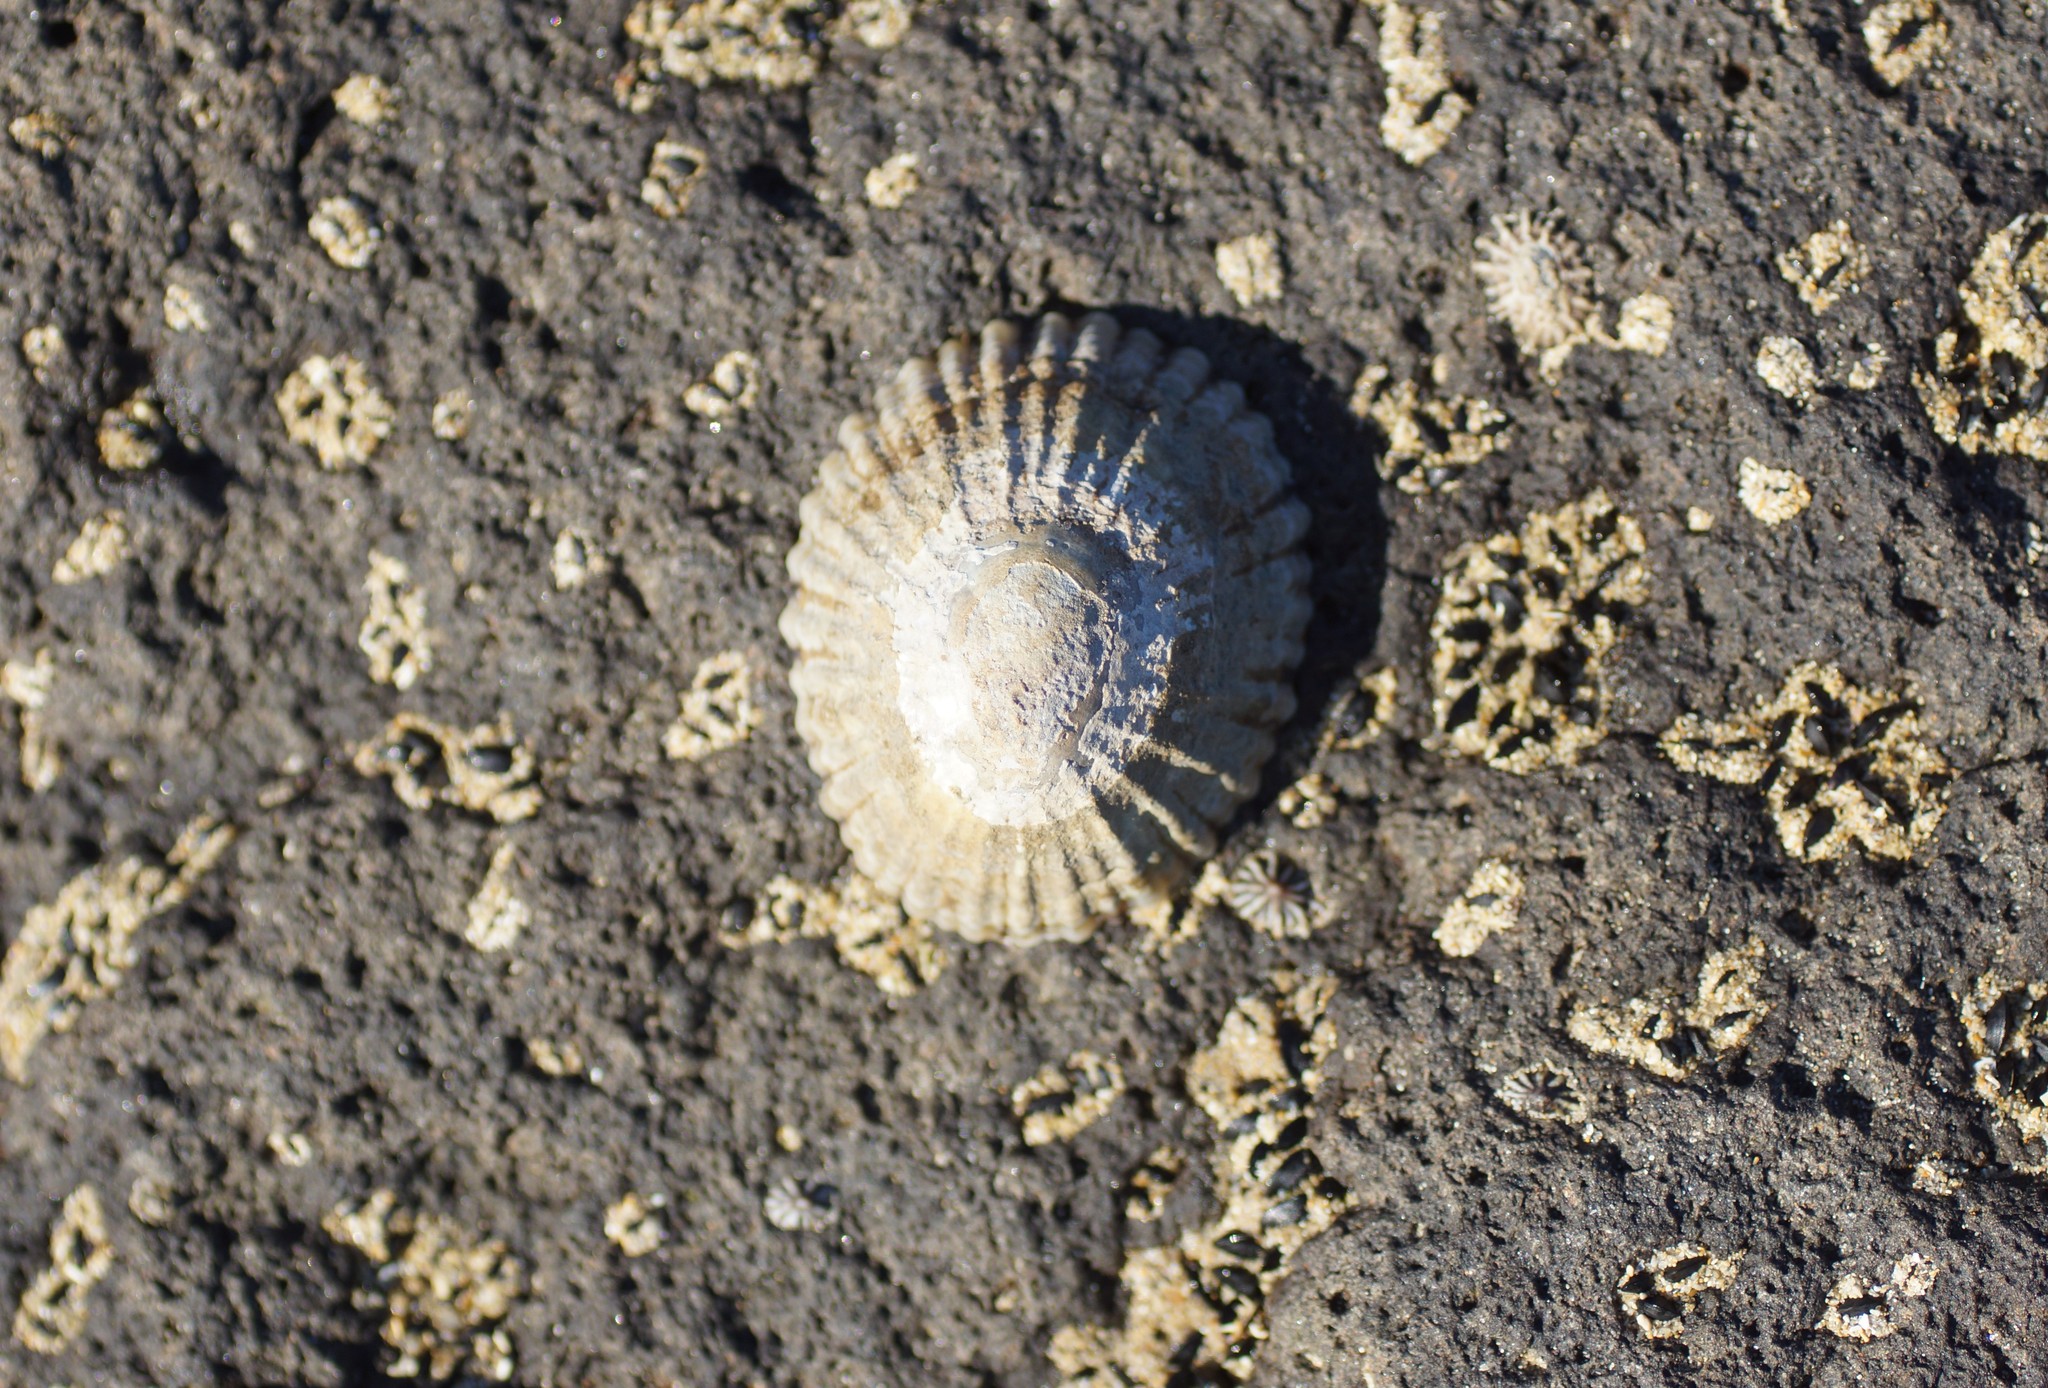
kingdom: Animalia
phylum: Mollusca
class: Gastropoda
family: Nacellidae
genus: Cellana
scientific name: Cellana tramoserica
